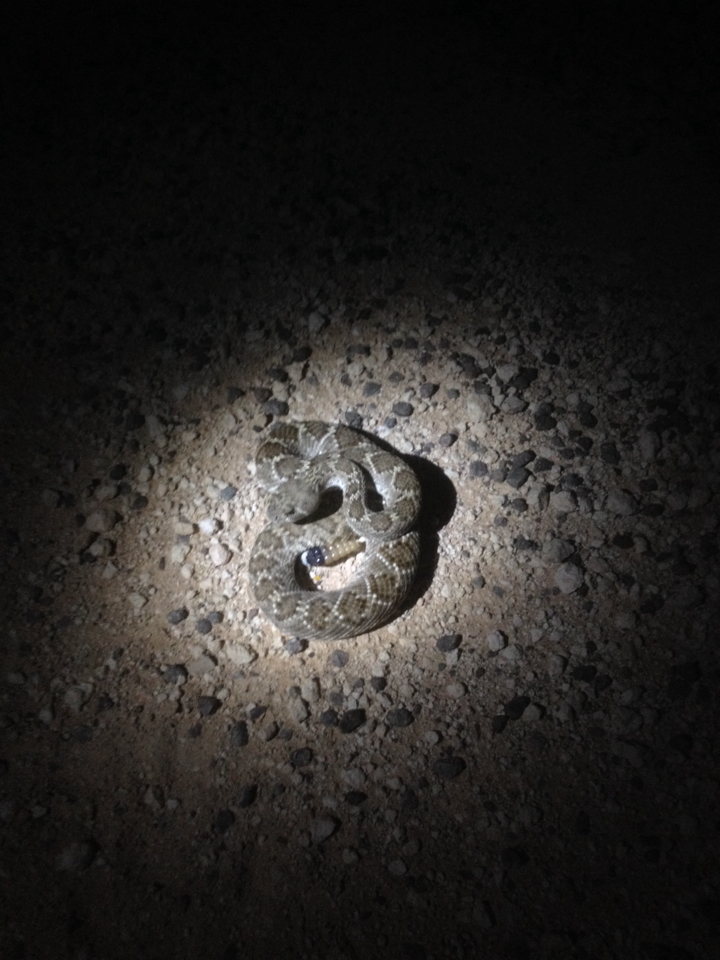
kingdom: Animalia
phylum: Chordata
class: Squamata
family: Viperidae
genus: Crotalus
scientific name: Crotalus atrox
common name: Western diamond-backed rattlesnake
